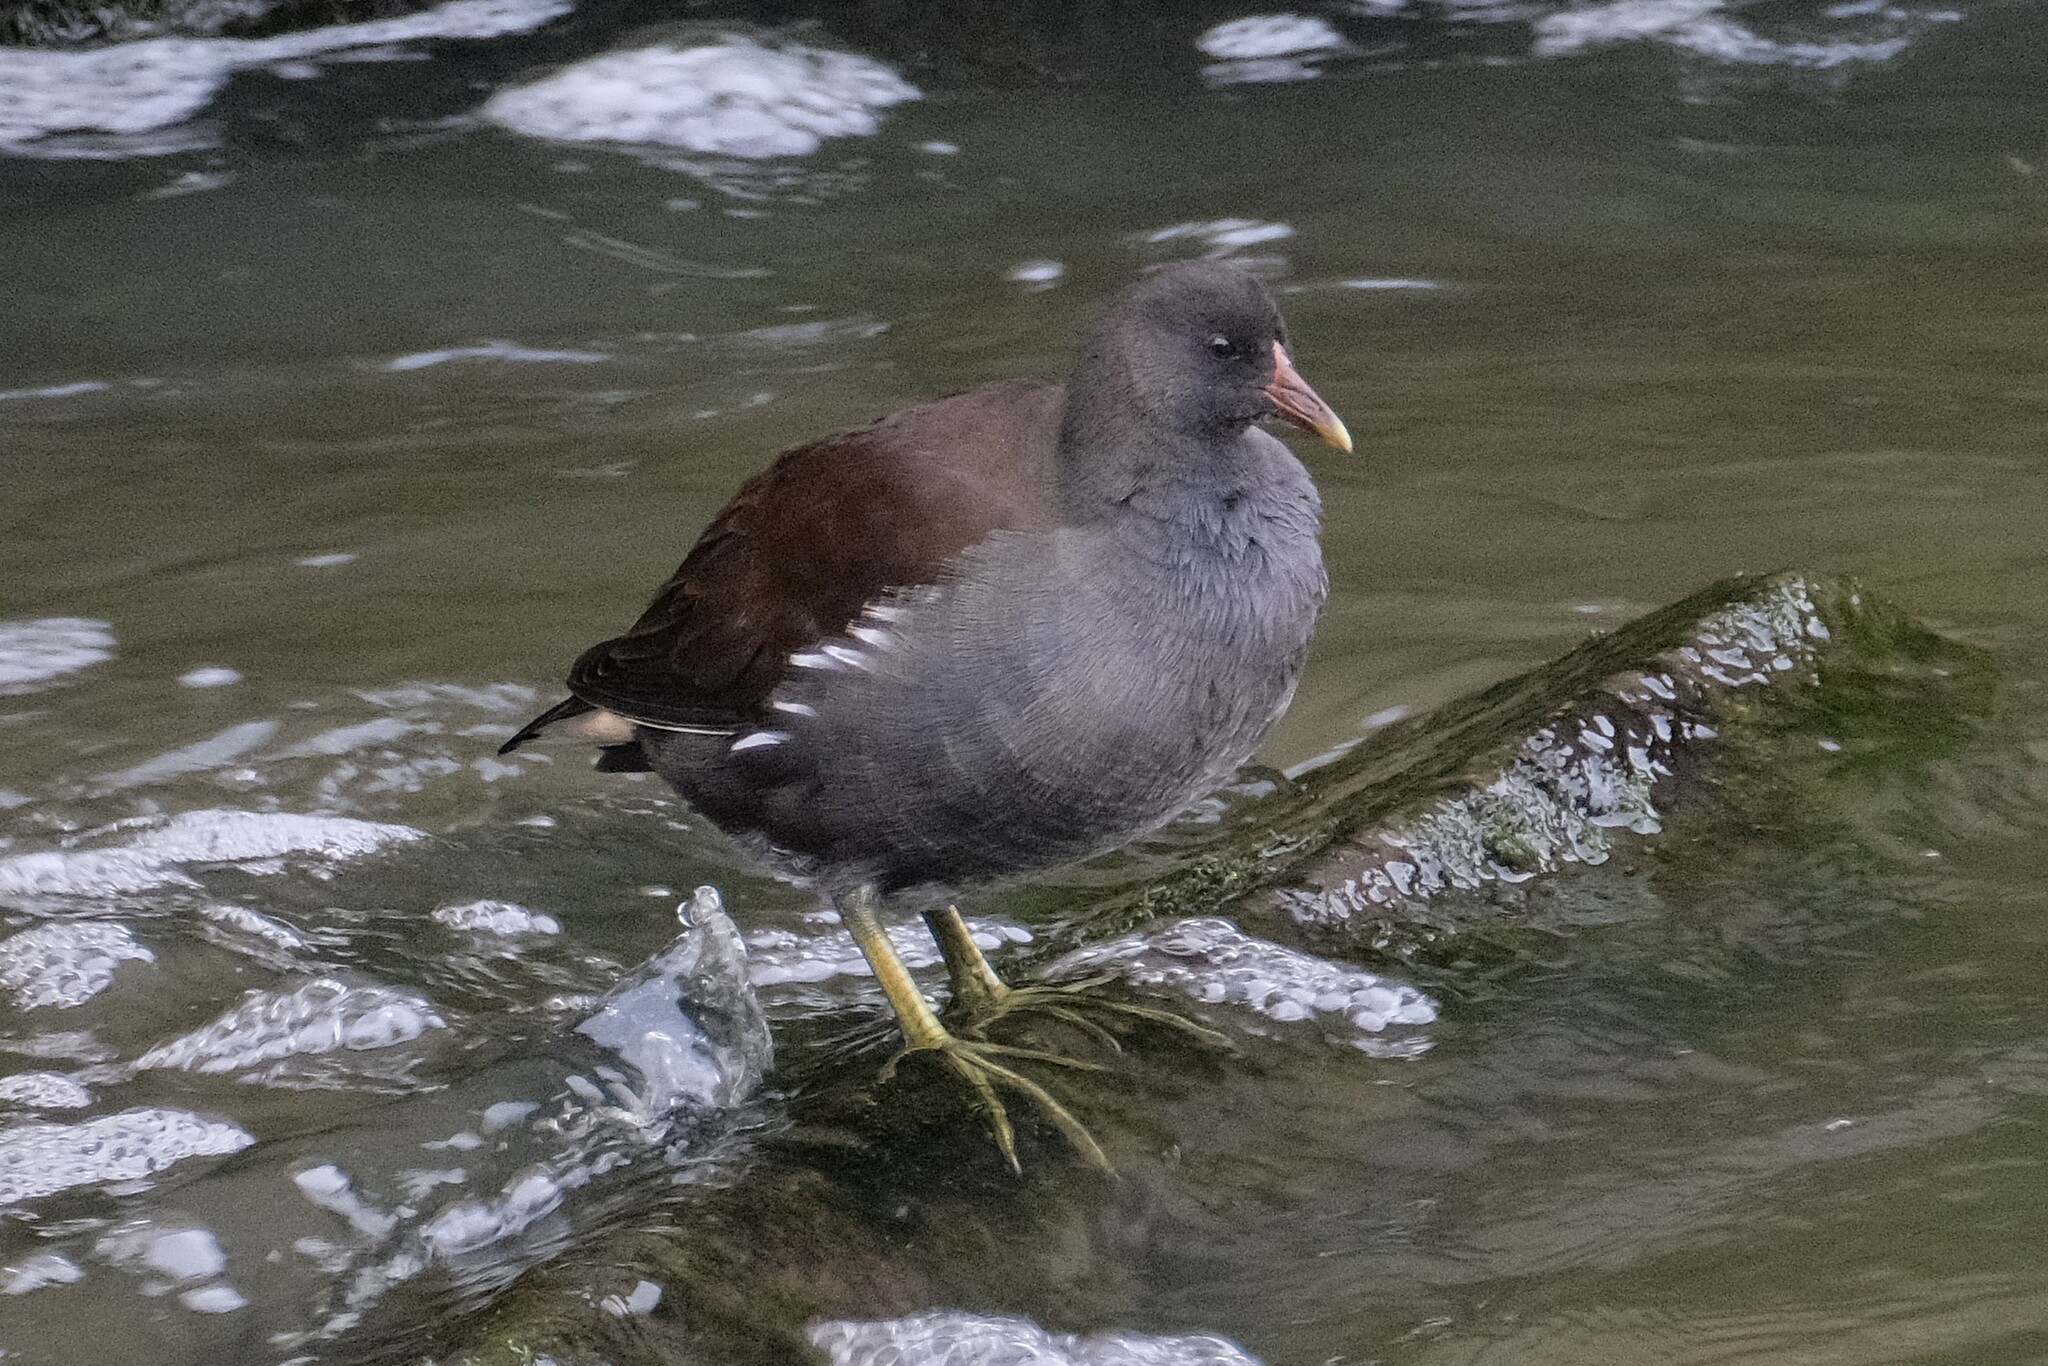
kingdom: Animalia
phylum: Chordata
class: Aves
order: Gruiformes
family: Rallidae
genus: Gallinula
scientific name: Gallinula chloropus
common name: Common moorhen
